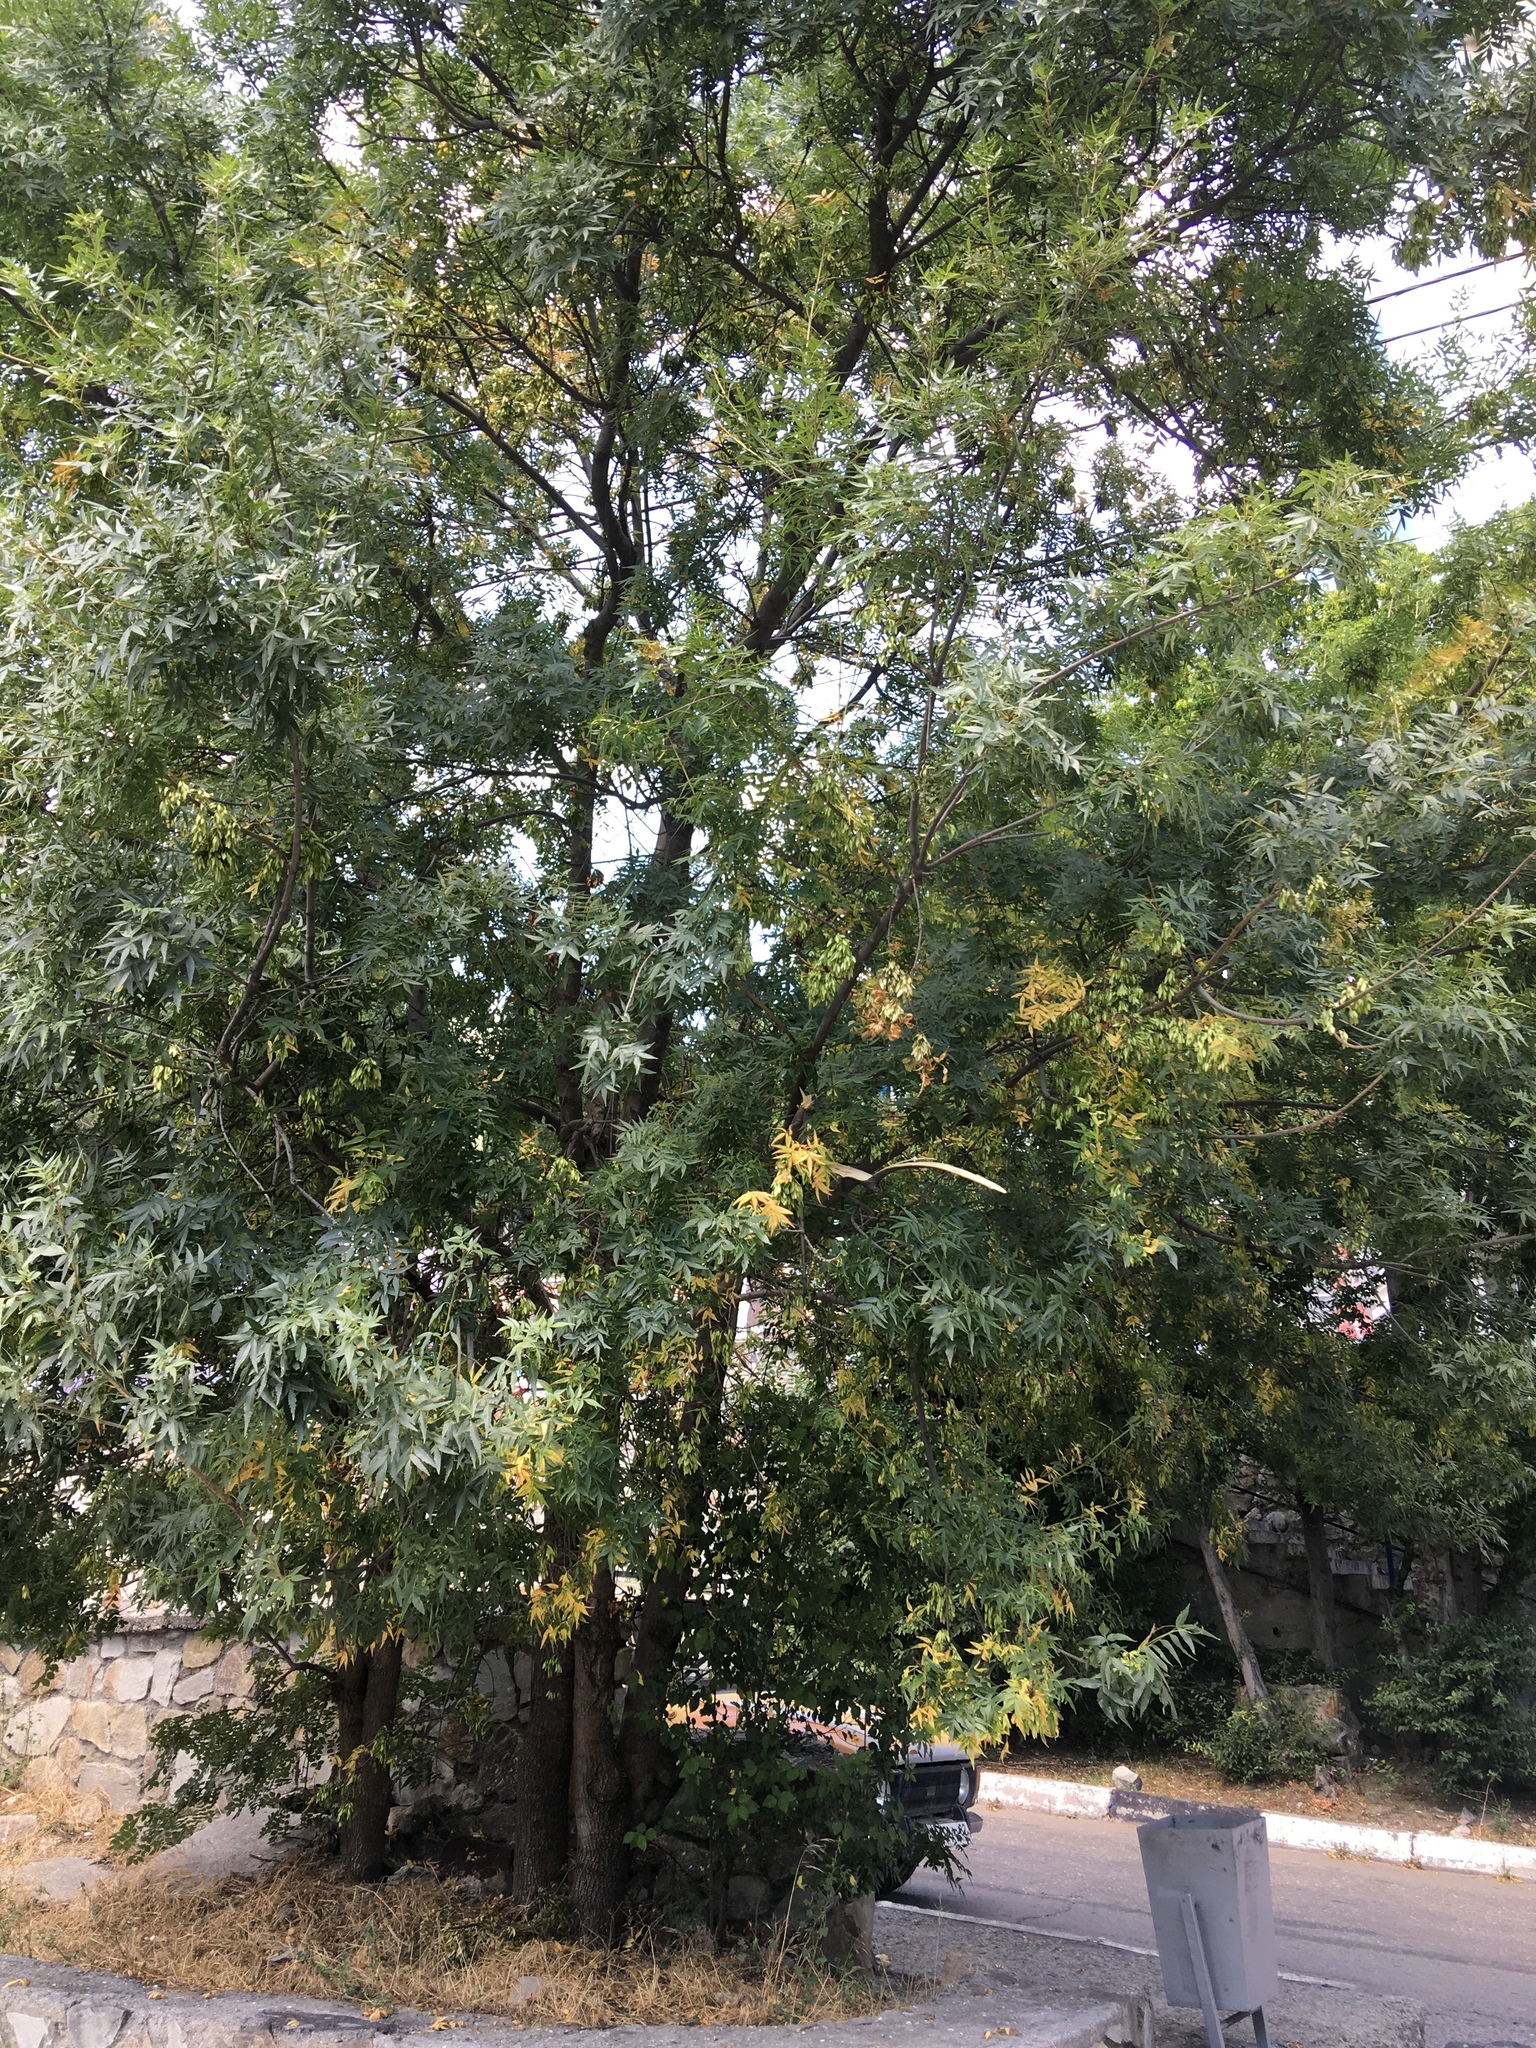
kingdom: Plantae
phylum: Tracheophyta
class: Magnoliopsida
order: Lamiales
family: Oleaceae
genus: Fraxinus
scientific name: Fraxinus excelsior
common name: European ash
